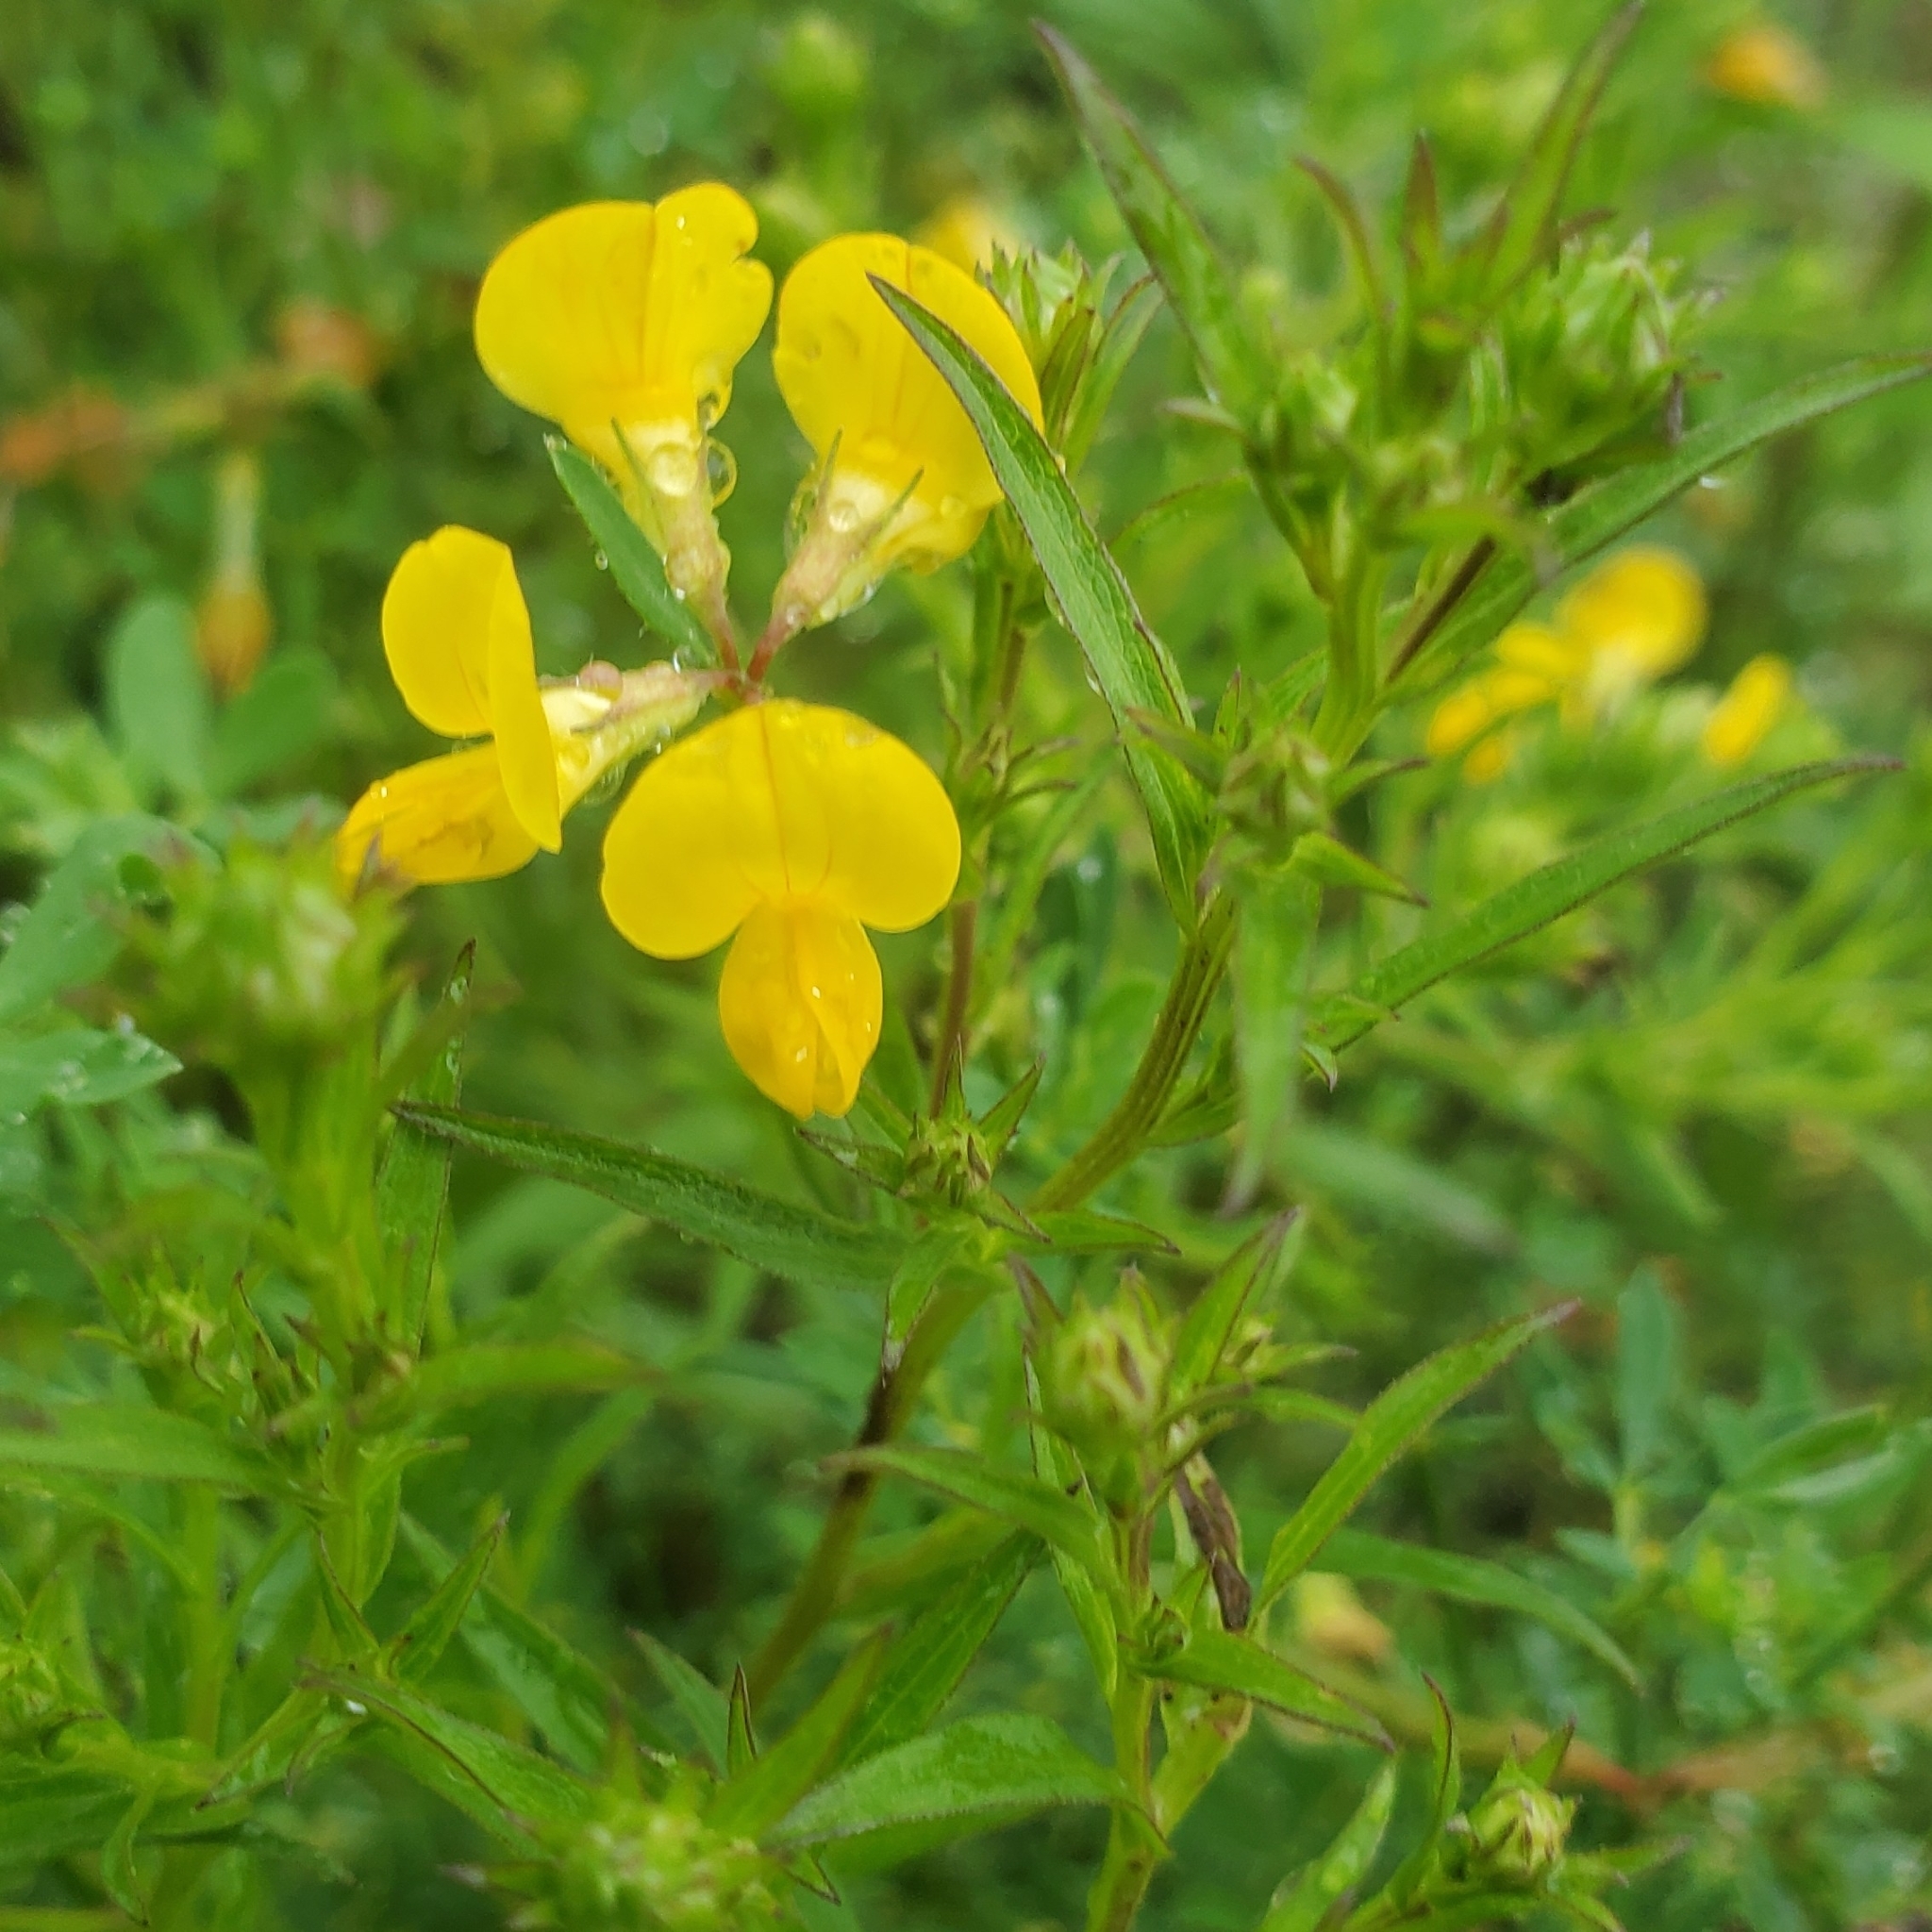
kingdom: Plantae
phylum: Tracheophyta
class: Magnoliopsida
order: Fabales
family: Fabaceae
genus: Lotus
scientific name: Lotus corniculatus
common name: Common bird's-foot-trefoil
